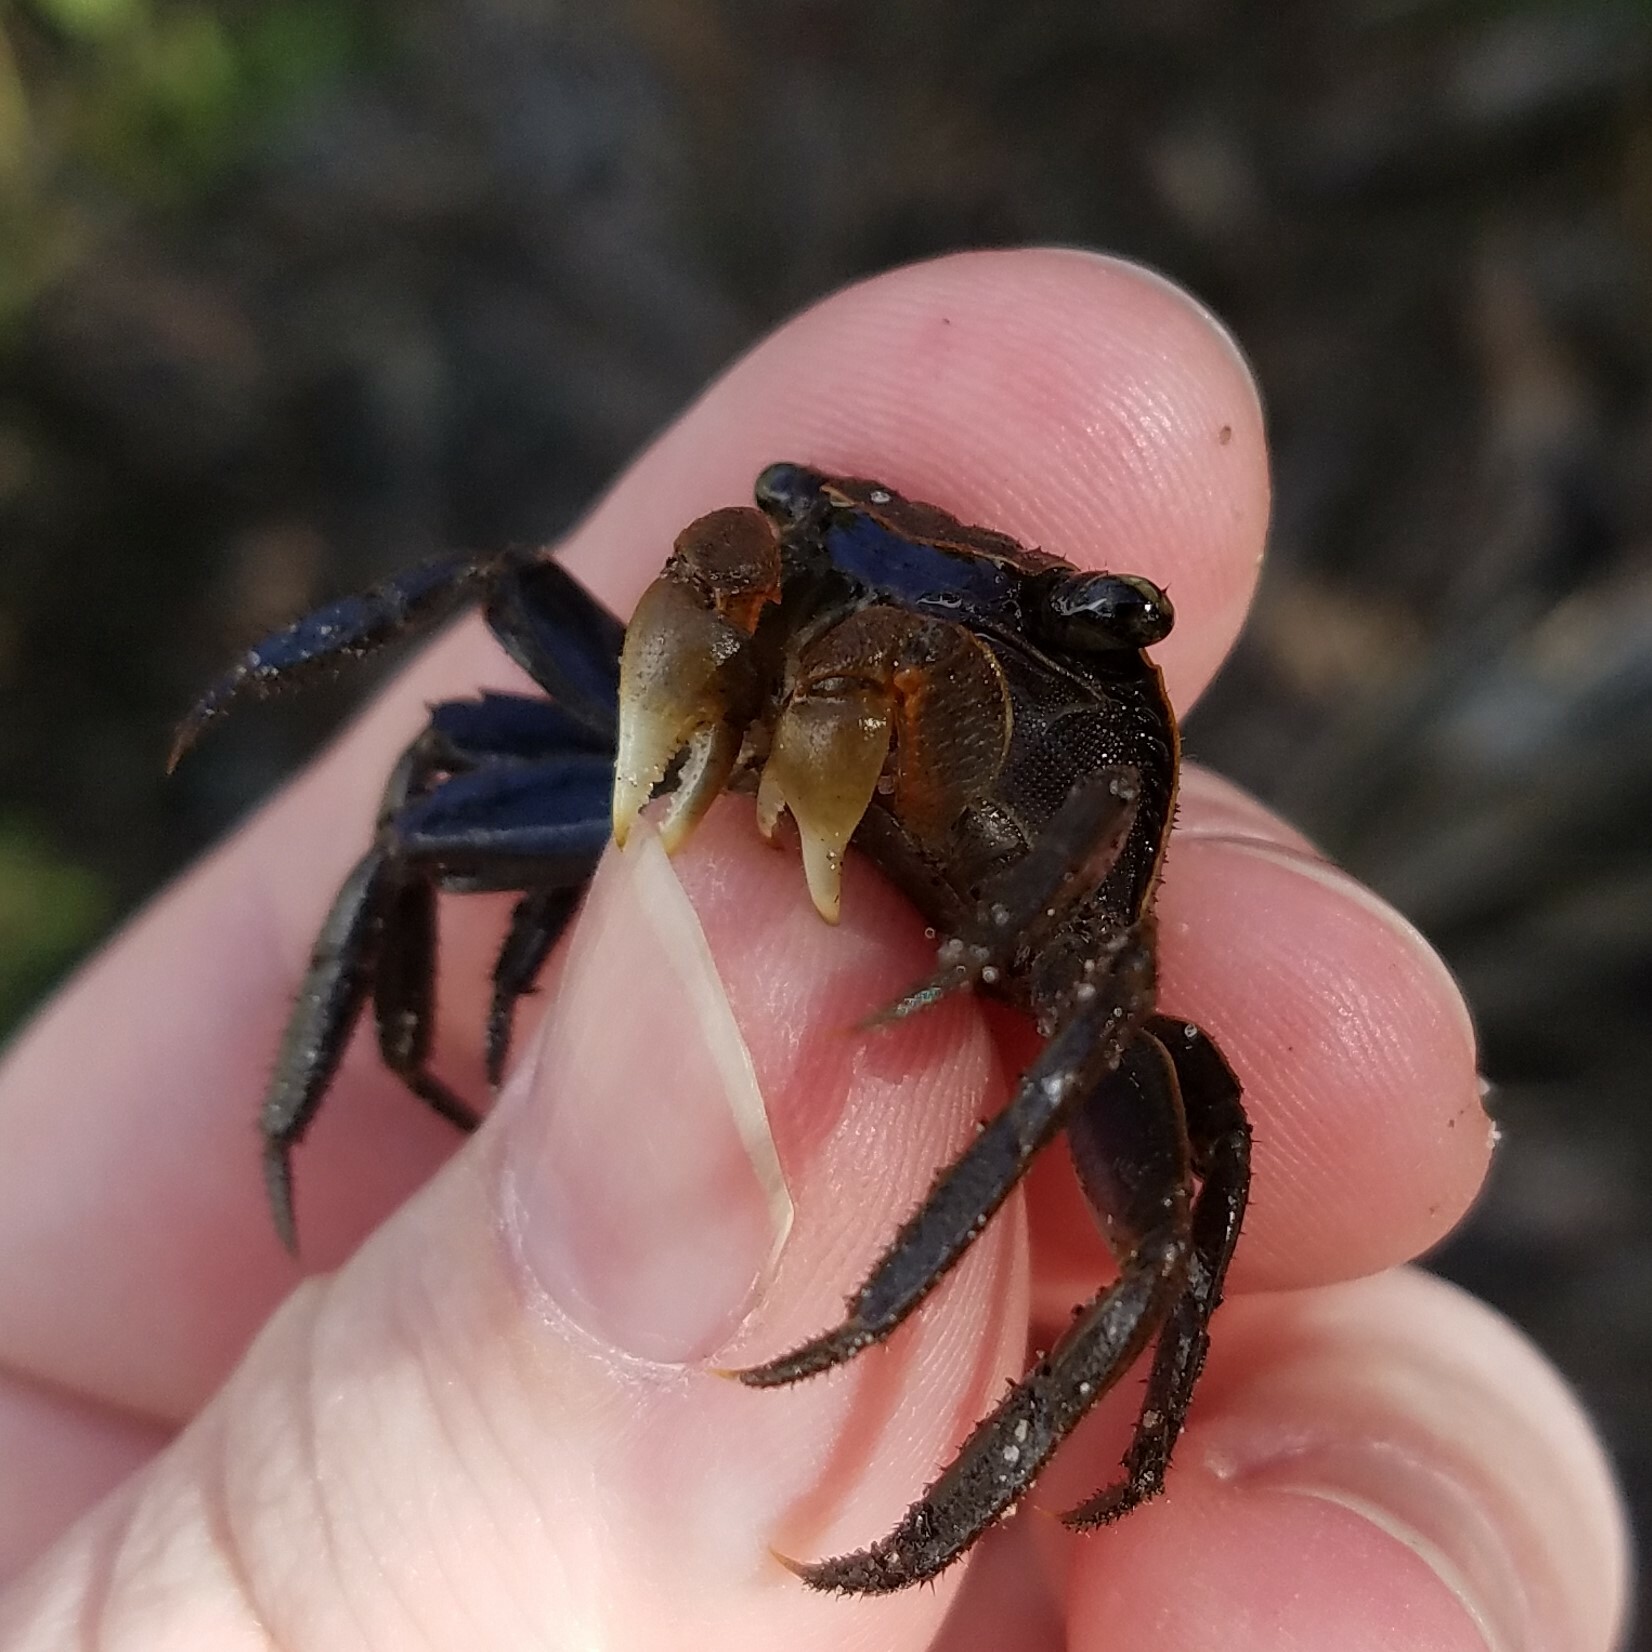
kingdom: Animalia
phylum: Arthropoda
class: Malacostraca
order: Decapoda
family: Sesarmidae
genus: Armases
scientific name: Armases cinereum
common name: Squareback marsh crab
